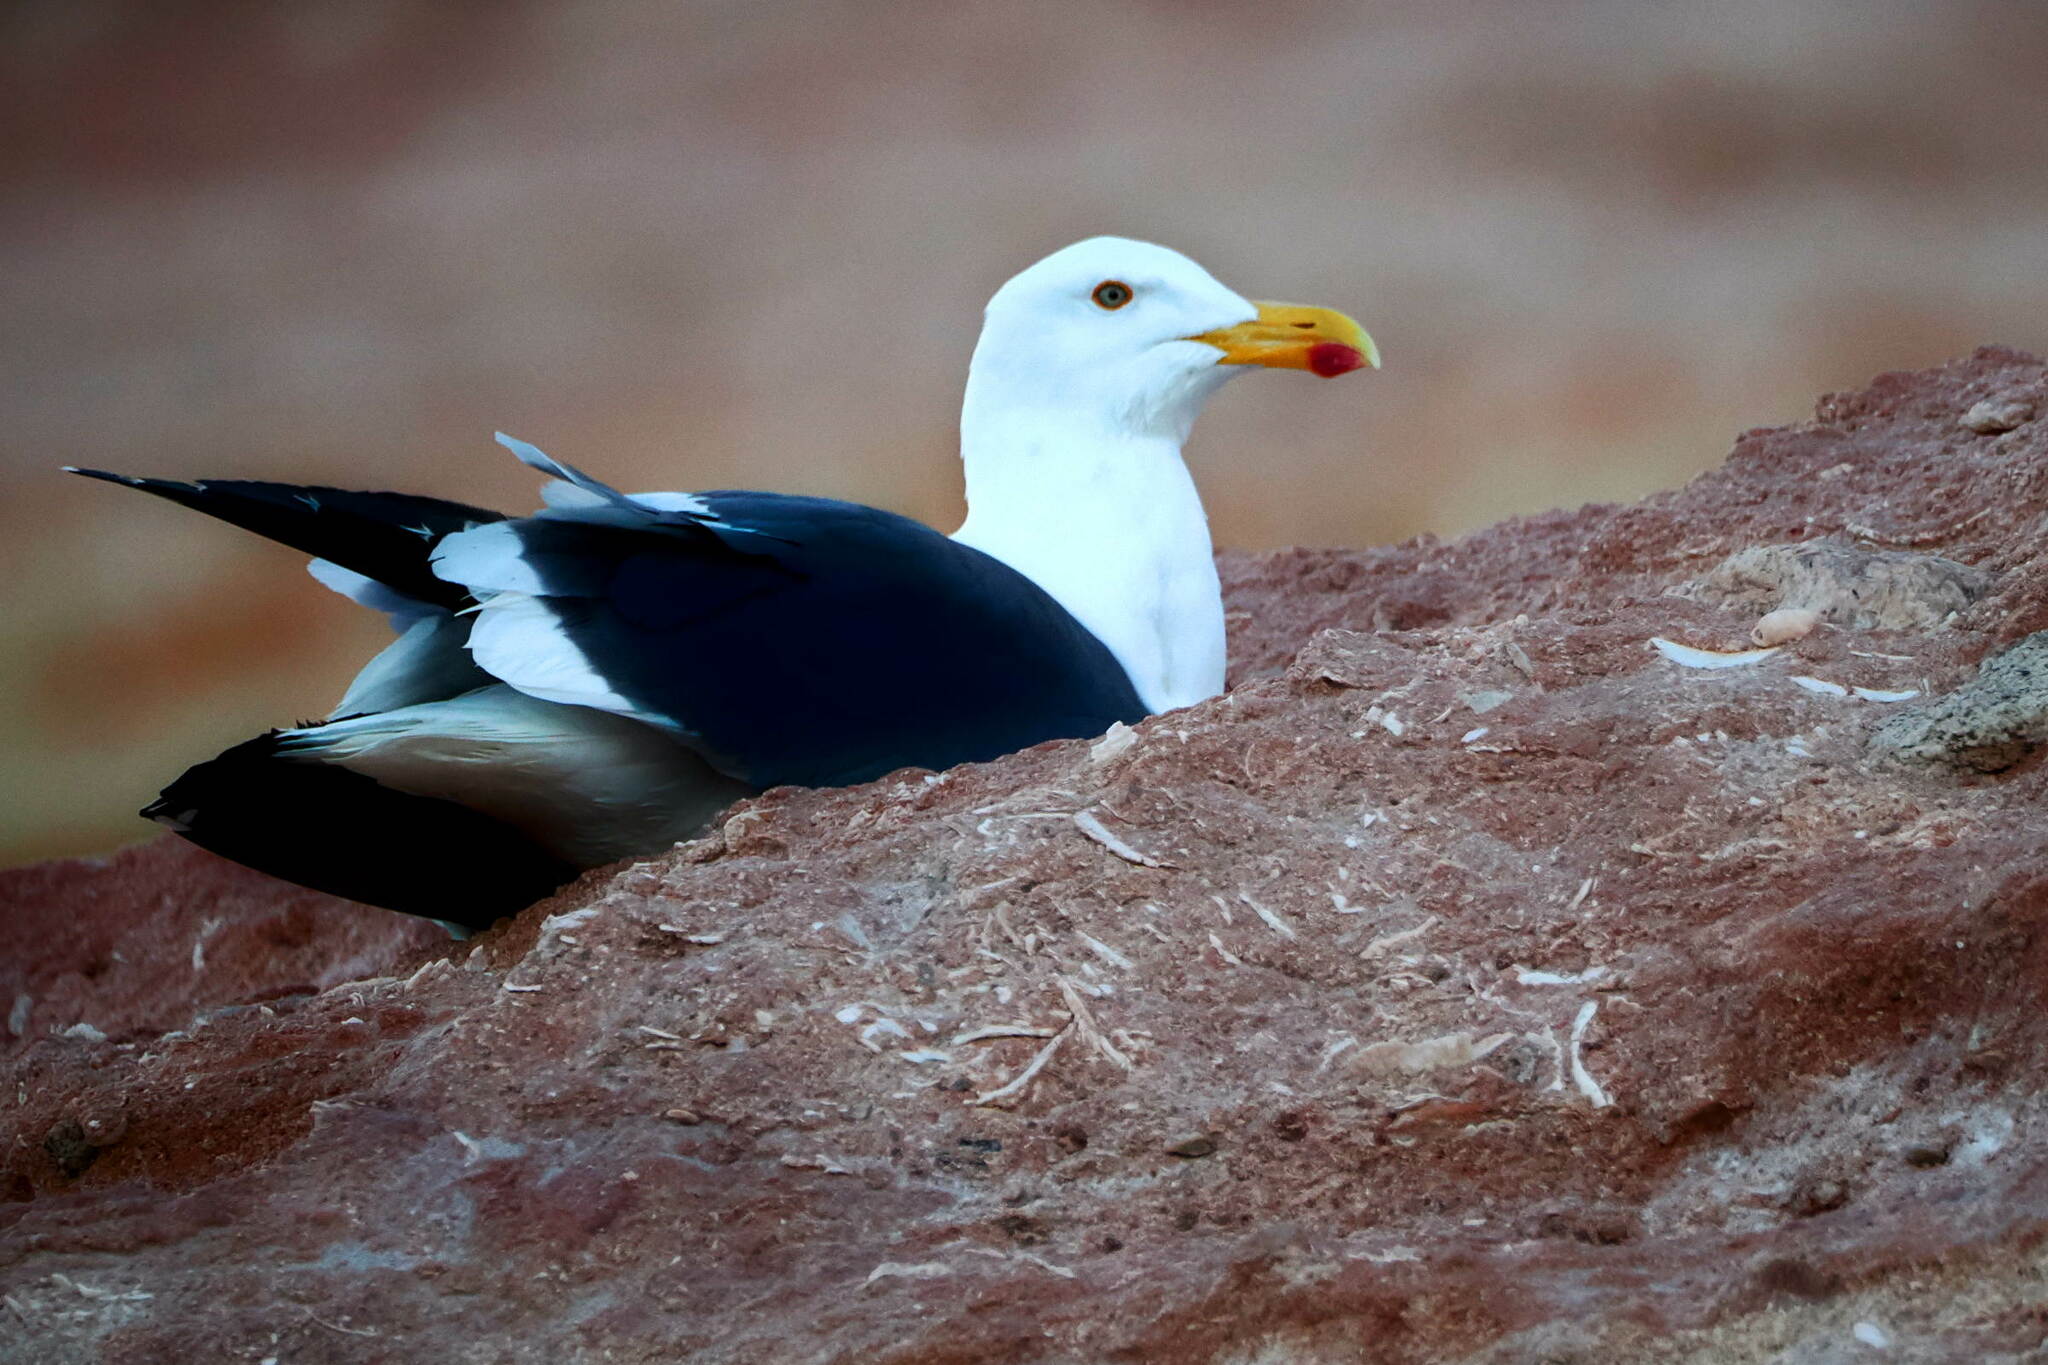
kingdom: Animalia
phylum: Chordata
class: Aves
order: Charadriiformes
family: Laridae
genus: Larus
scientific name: Larus livens
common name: Yellow-footed gull
